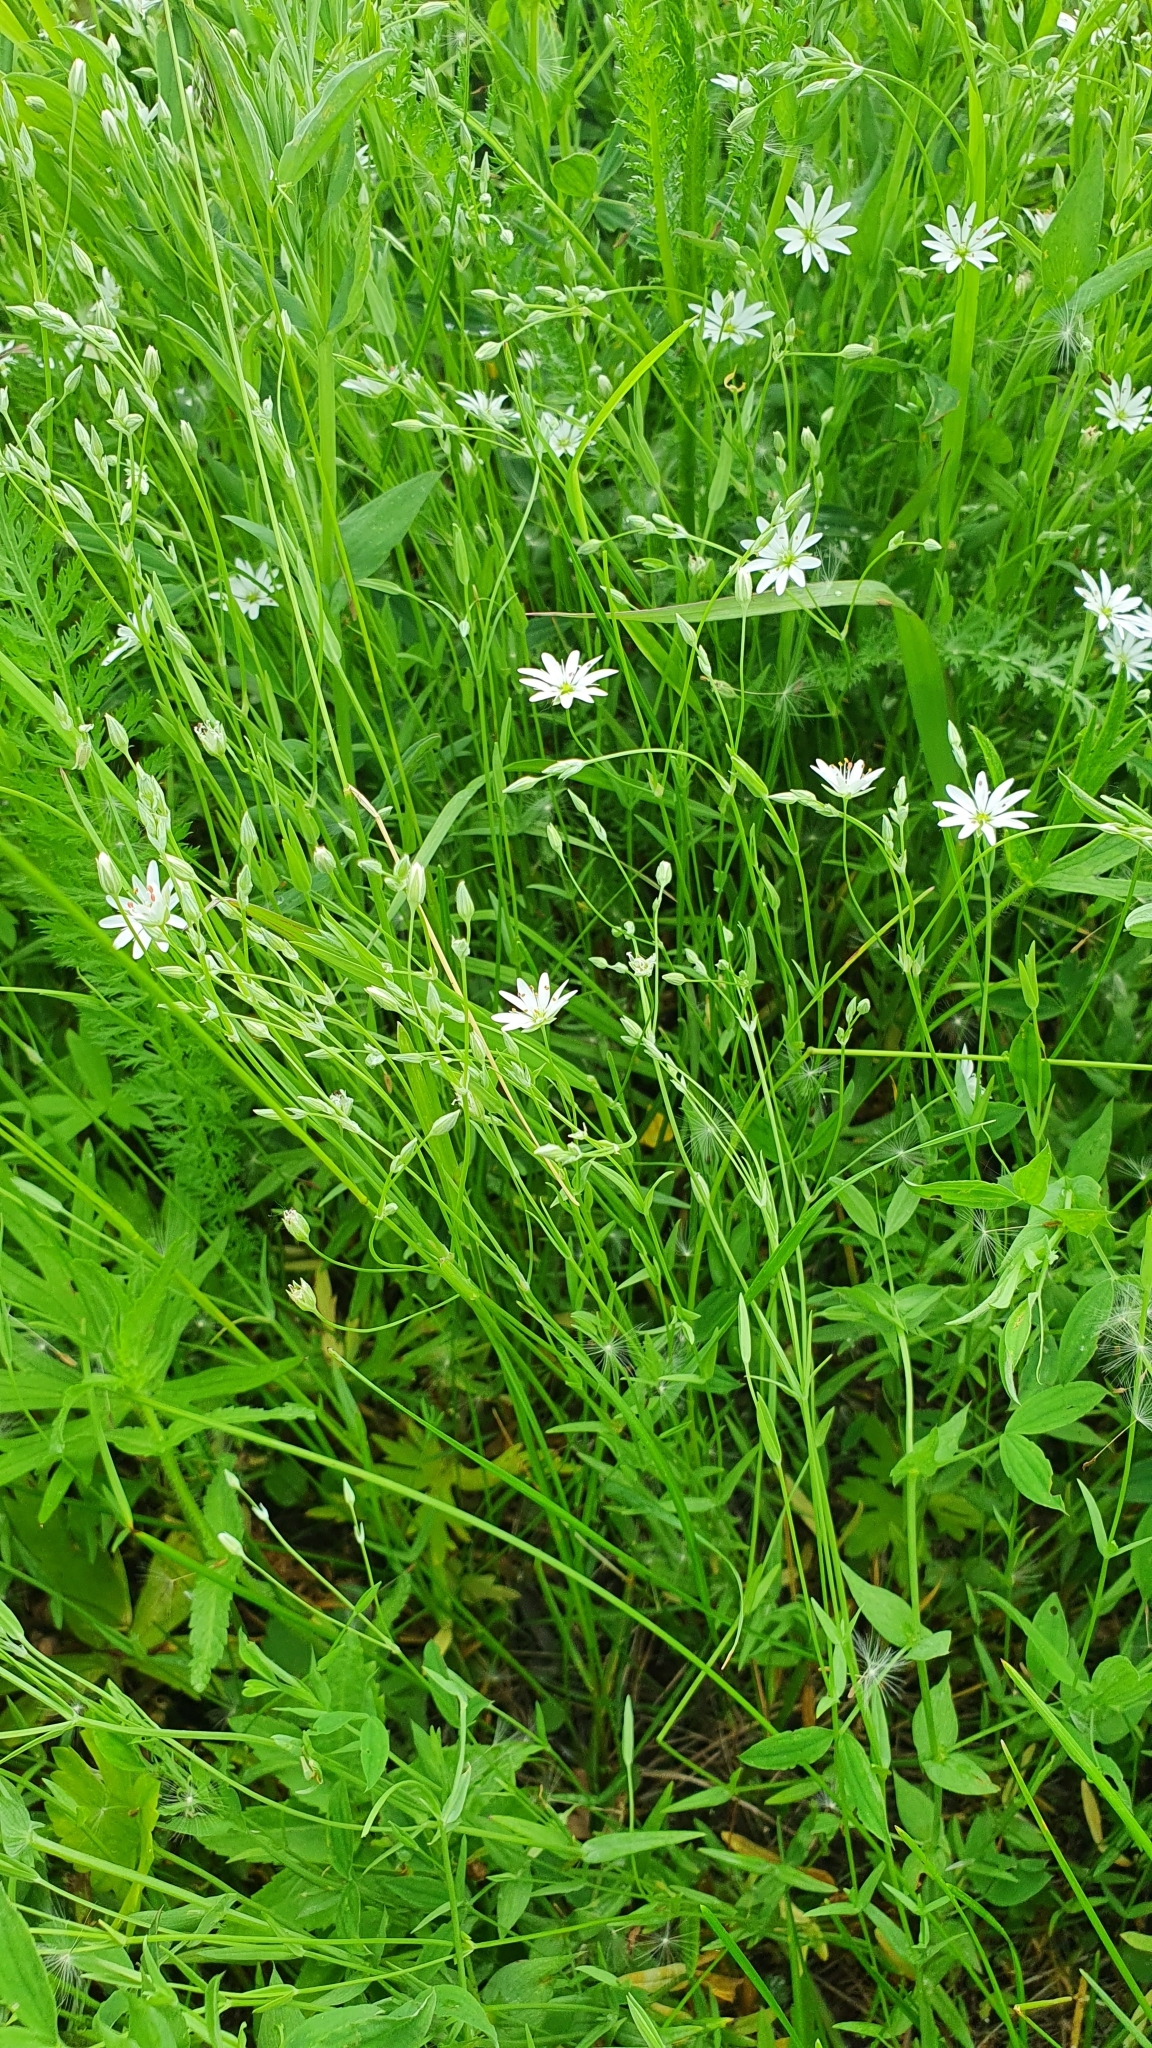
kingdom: Plantae
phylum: Tracheophyta
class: Magnoliopsida
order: Caryophyllales
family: Caryophyllaceae
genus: Stellaria
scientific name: Stellaria graminea
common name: Grass-like starwort
